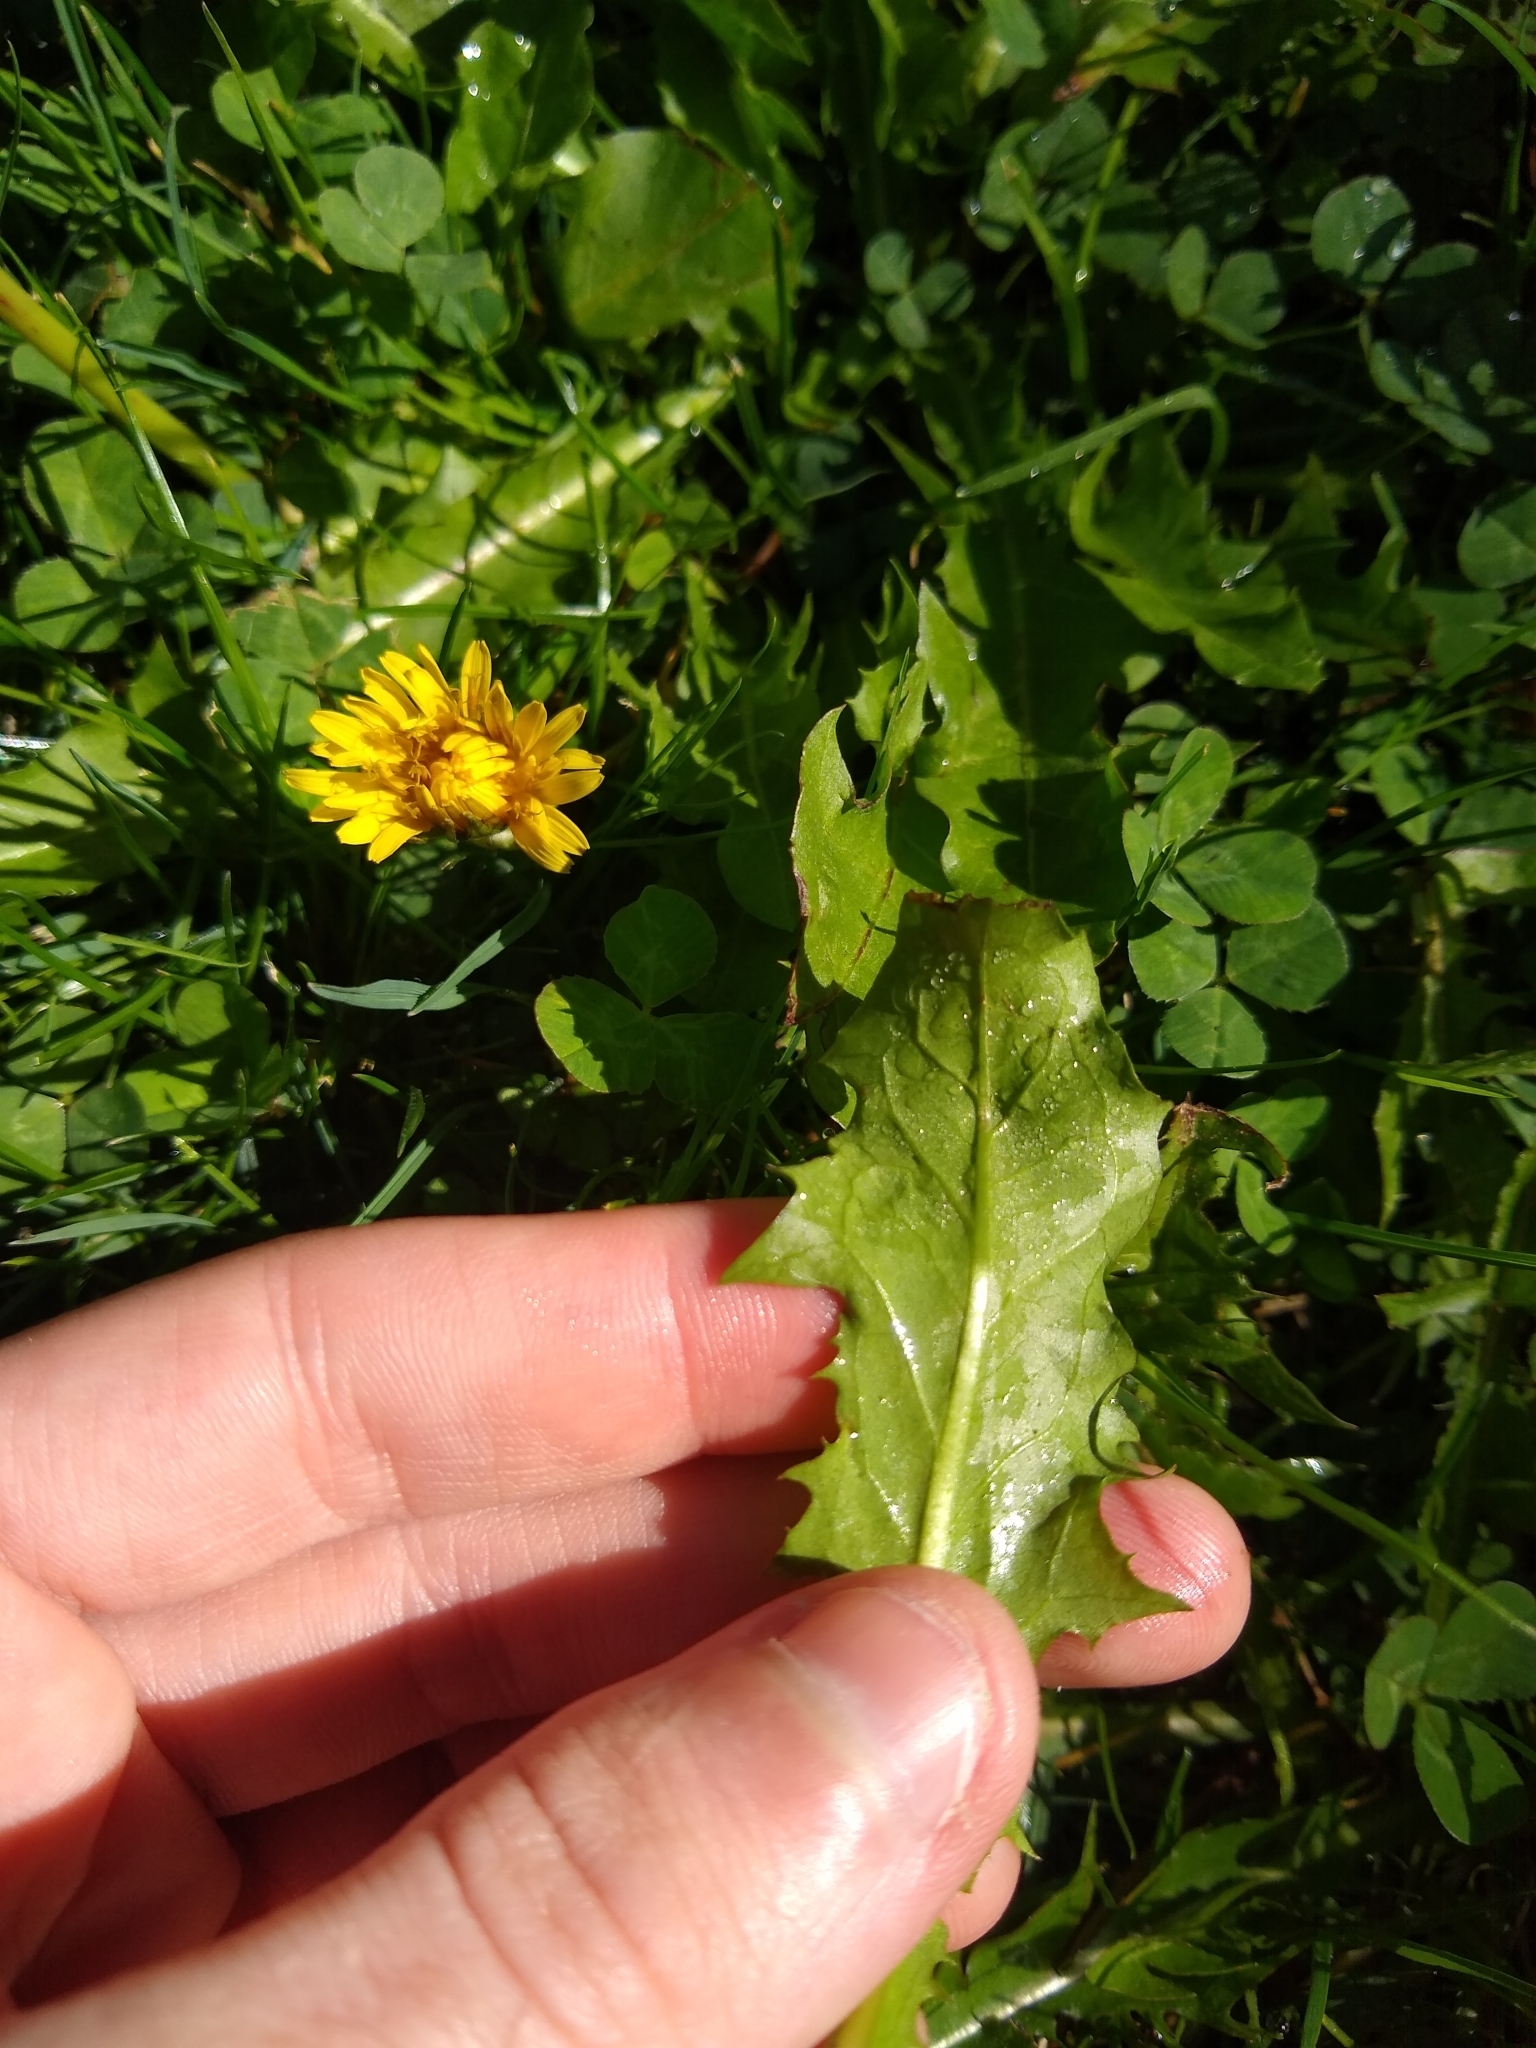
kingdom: Plantae
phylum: Tracheophyta
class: Magnoliopsida
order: Asterales
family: Asteraceae
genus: Taraxacum
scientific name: Taraxacum officinale
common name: Common dandelion
